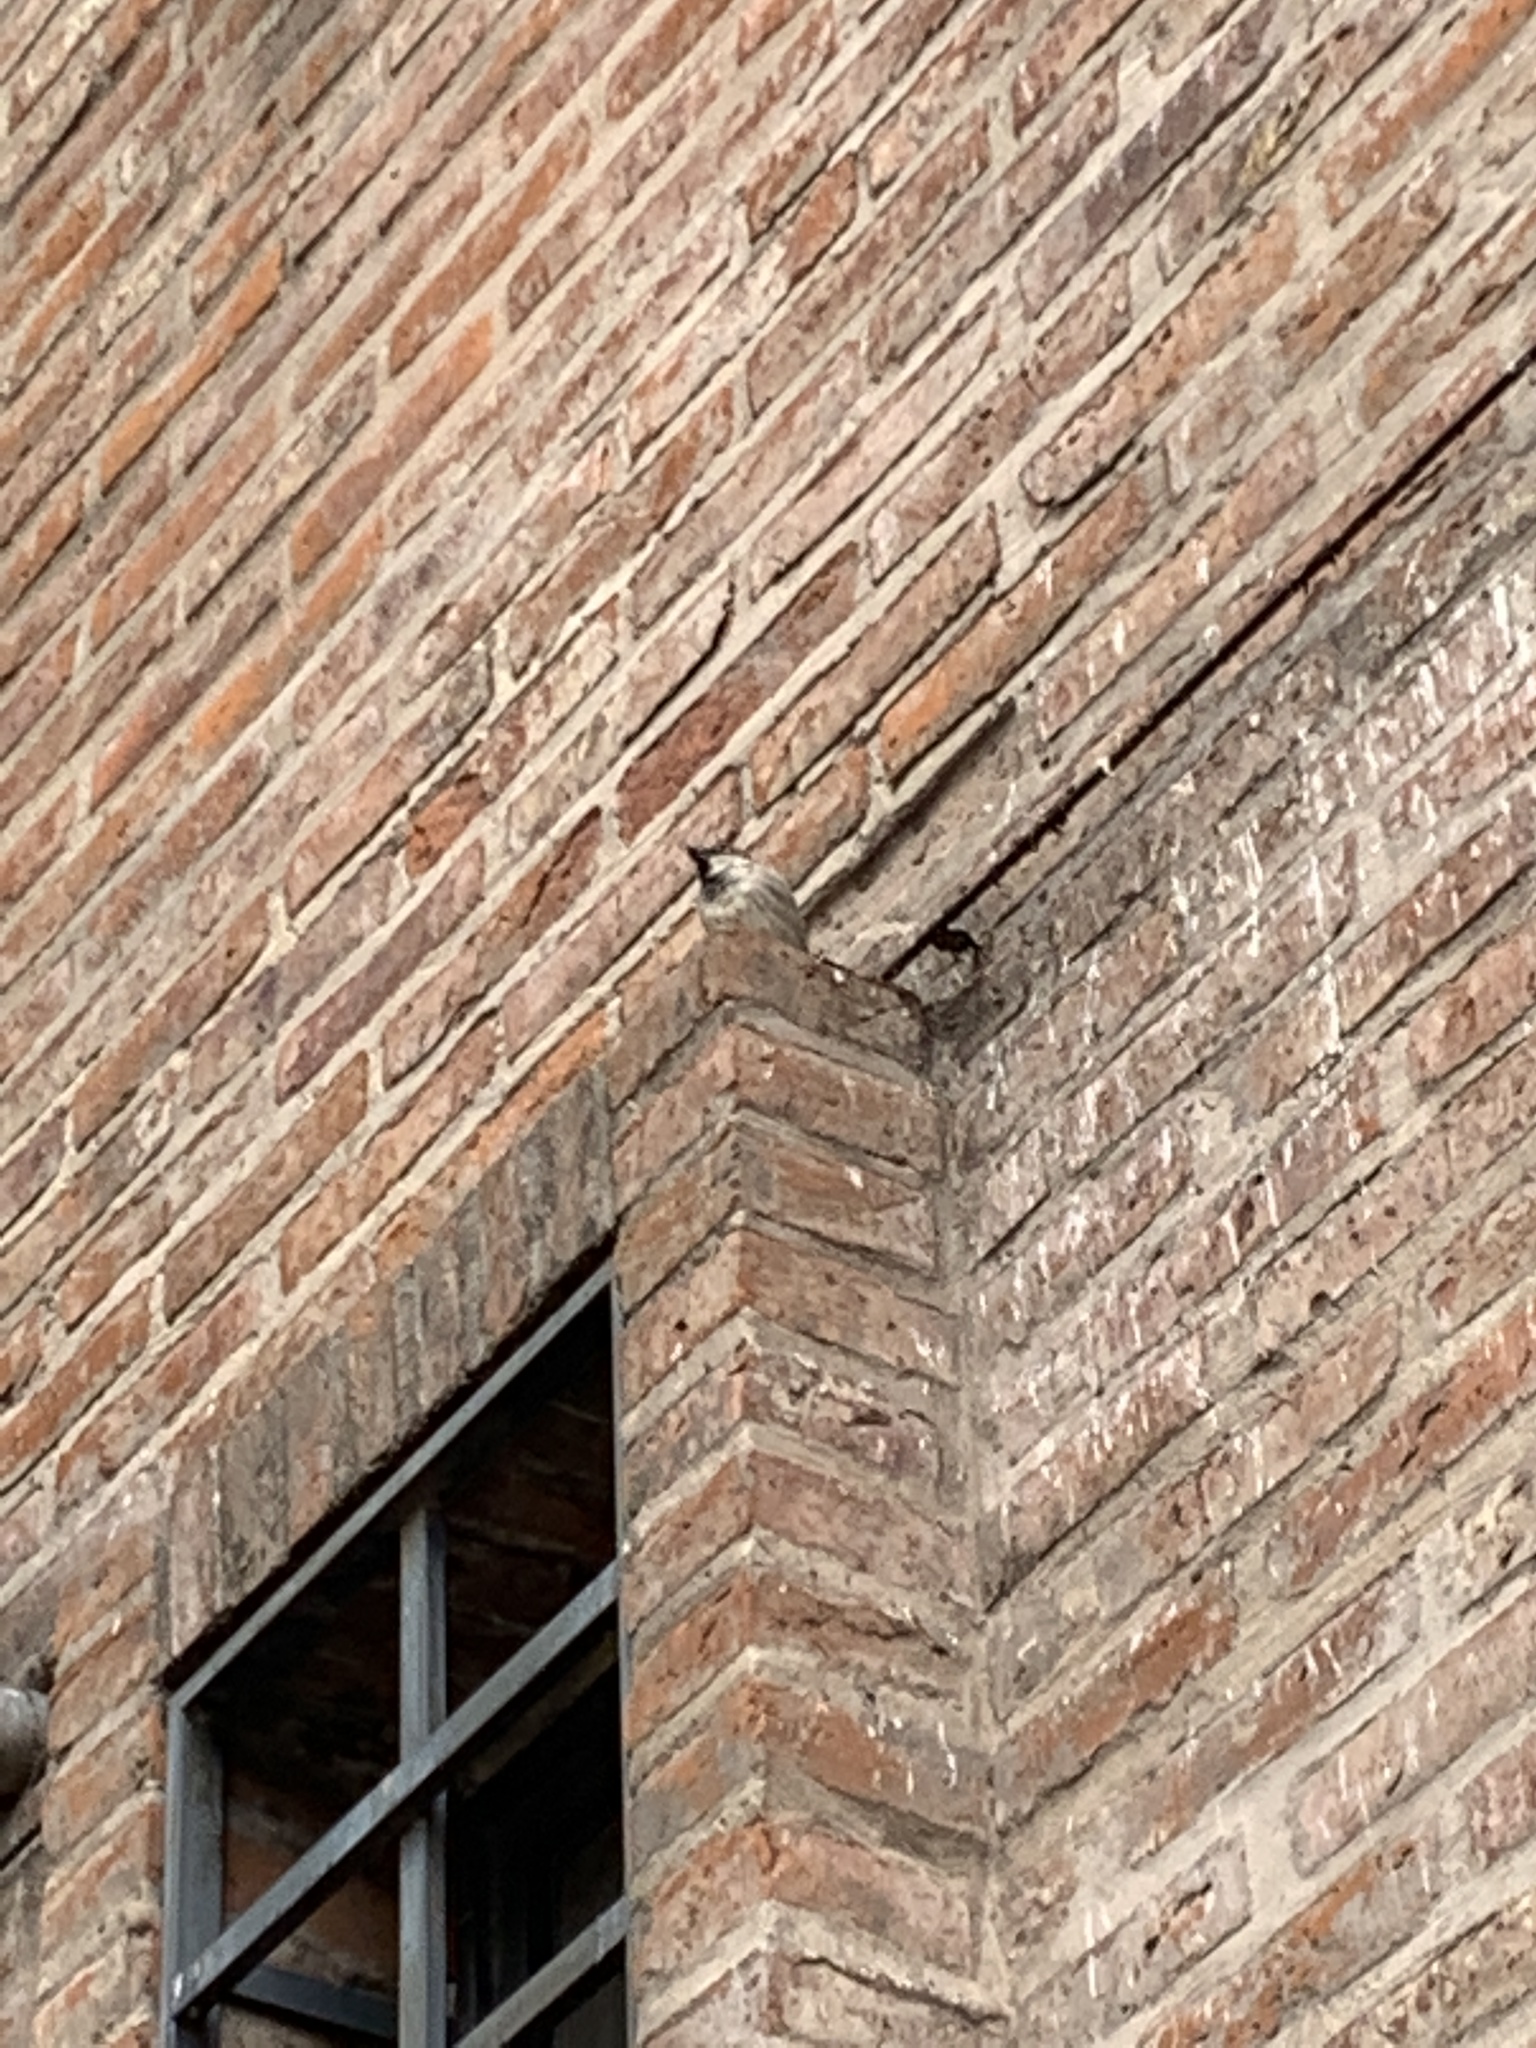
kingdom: Animalia
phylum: Chordata
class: Aves
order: Passeriformes
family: Passeridae
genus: Passer
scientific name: Passer domesticus
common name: House sparrow
